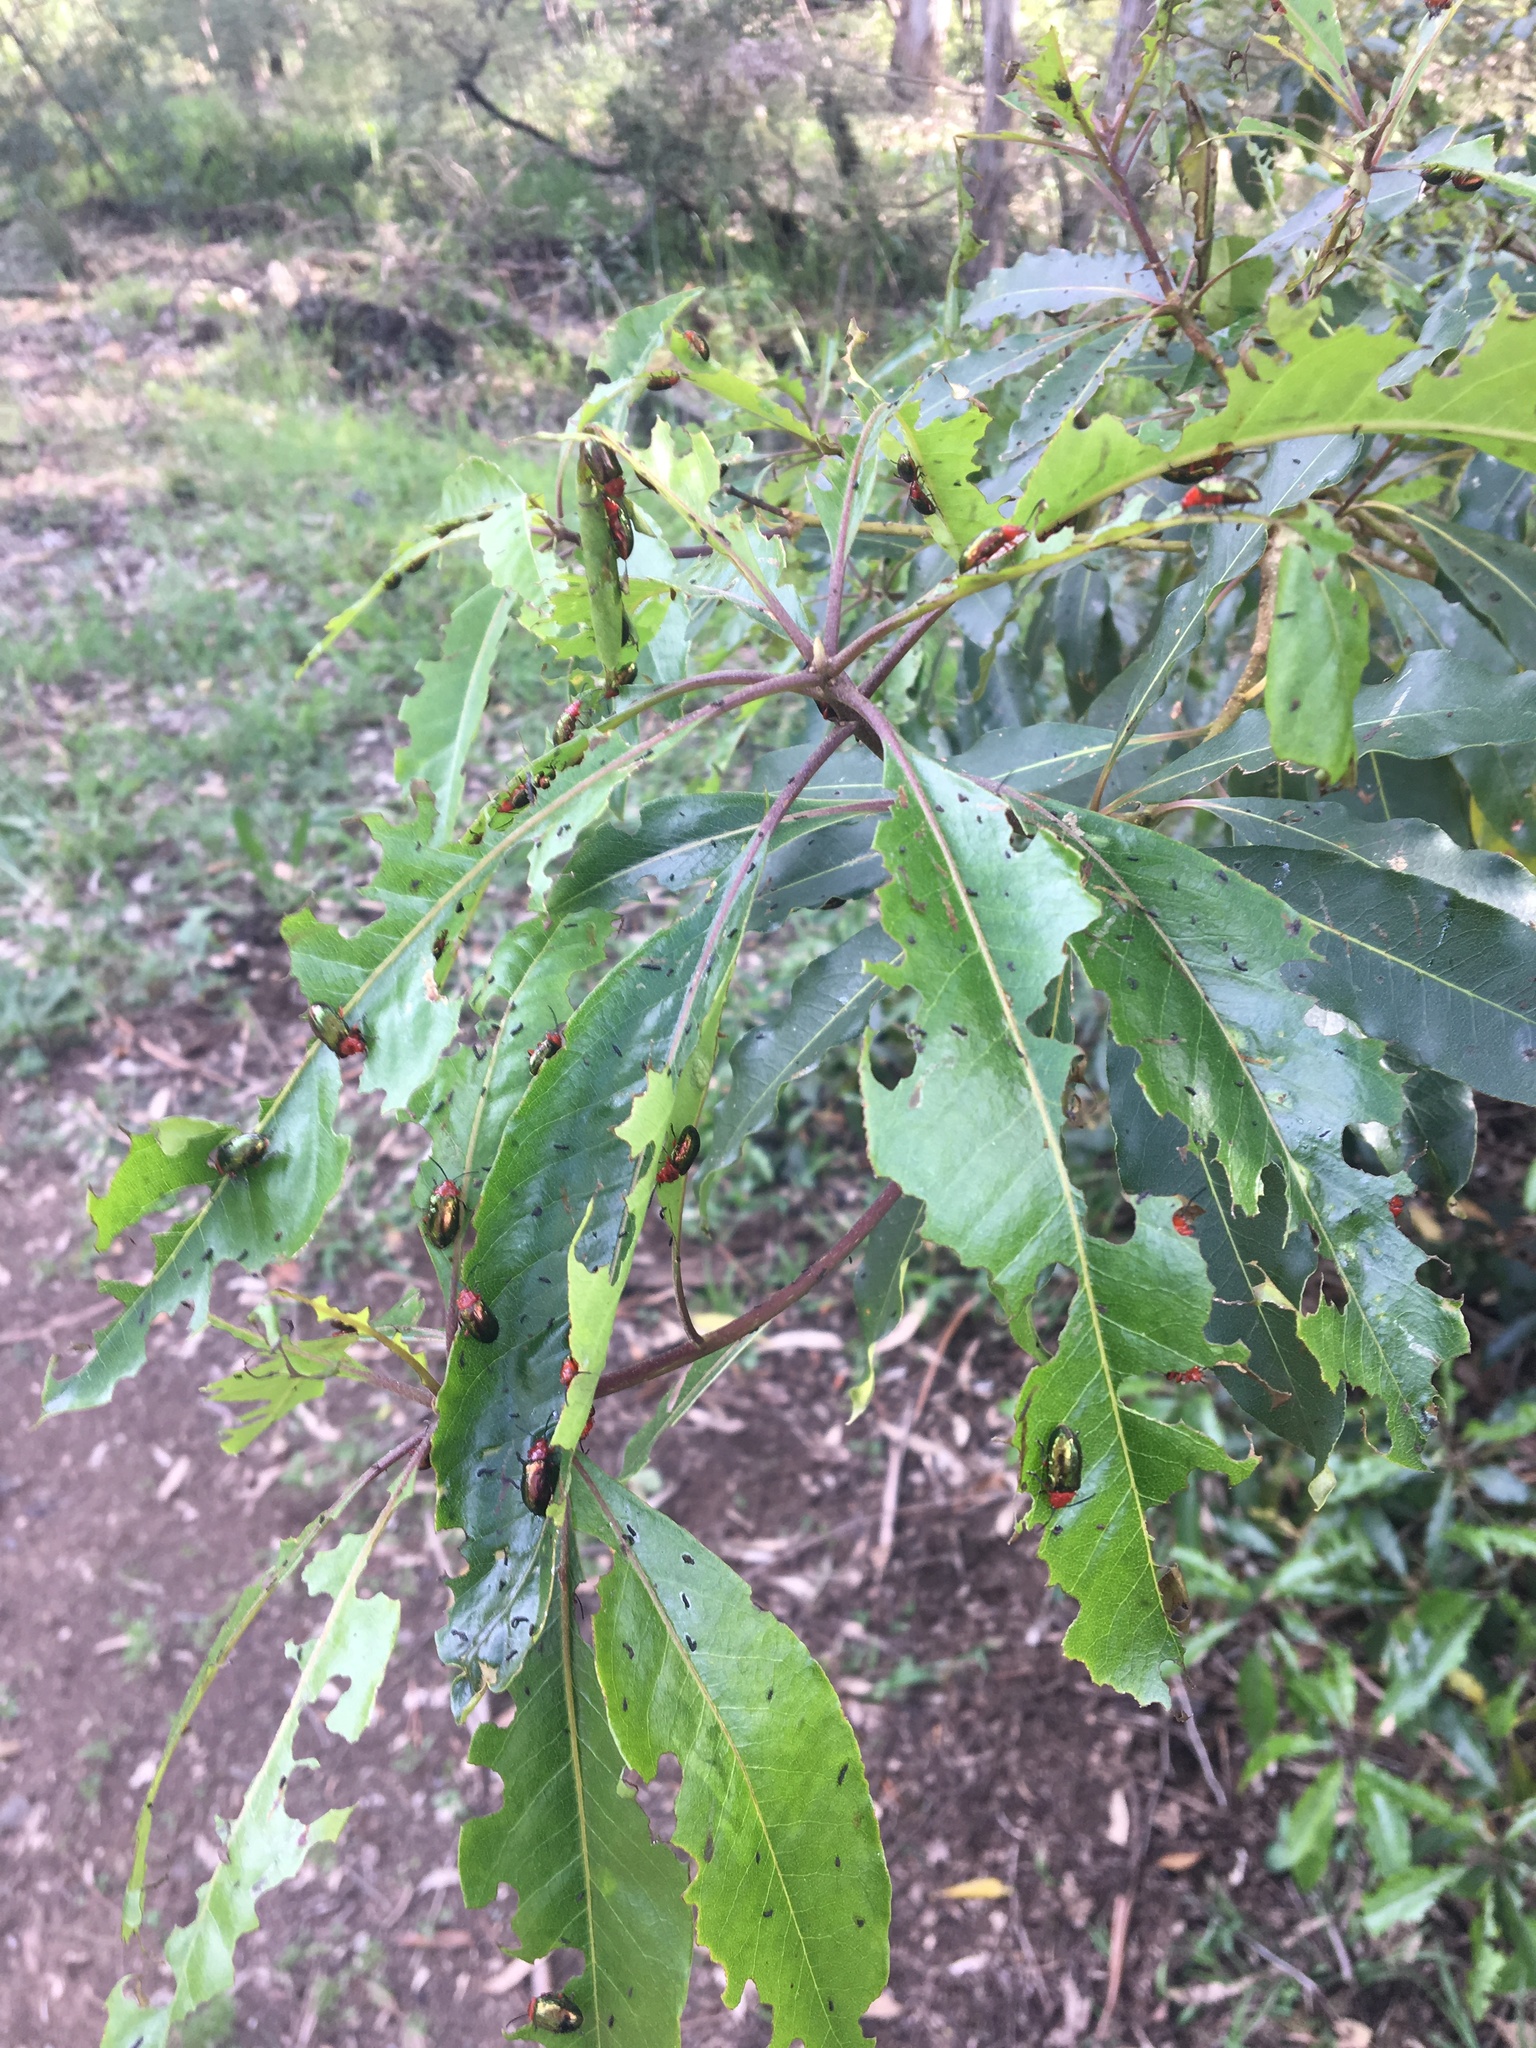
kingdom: Plantae
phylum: Tracheophyta
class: Magnoliopsida
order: Apiales
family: Pittosporaceae
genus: Pittosporum
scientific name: Pittosporum undulatum
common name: Australian cheesewood
